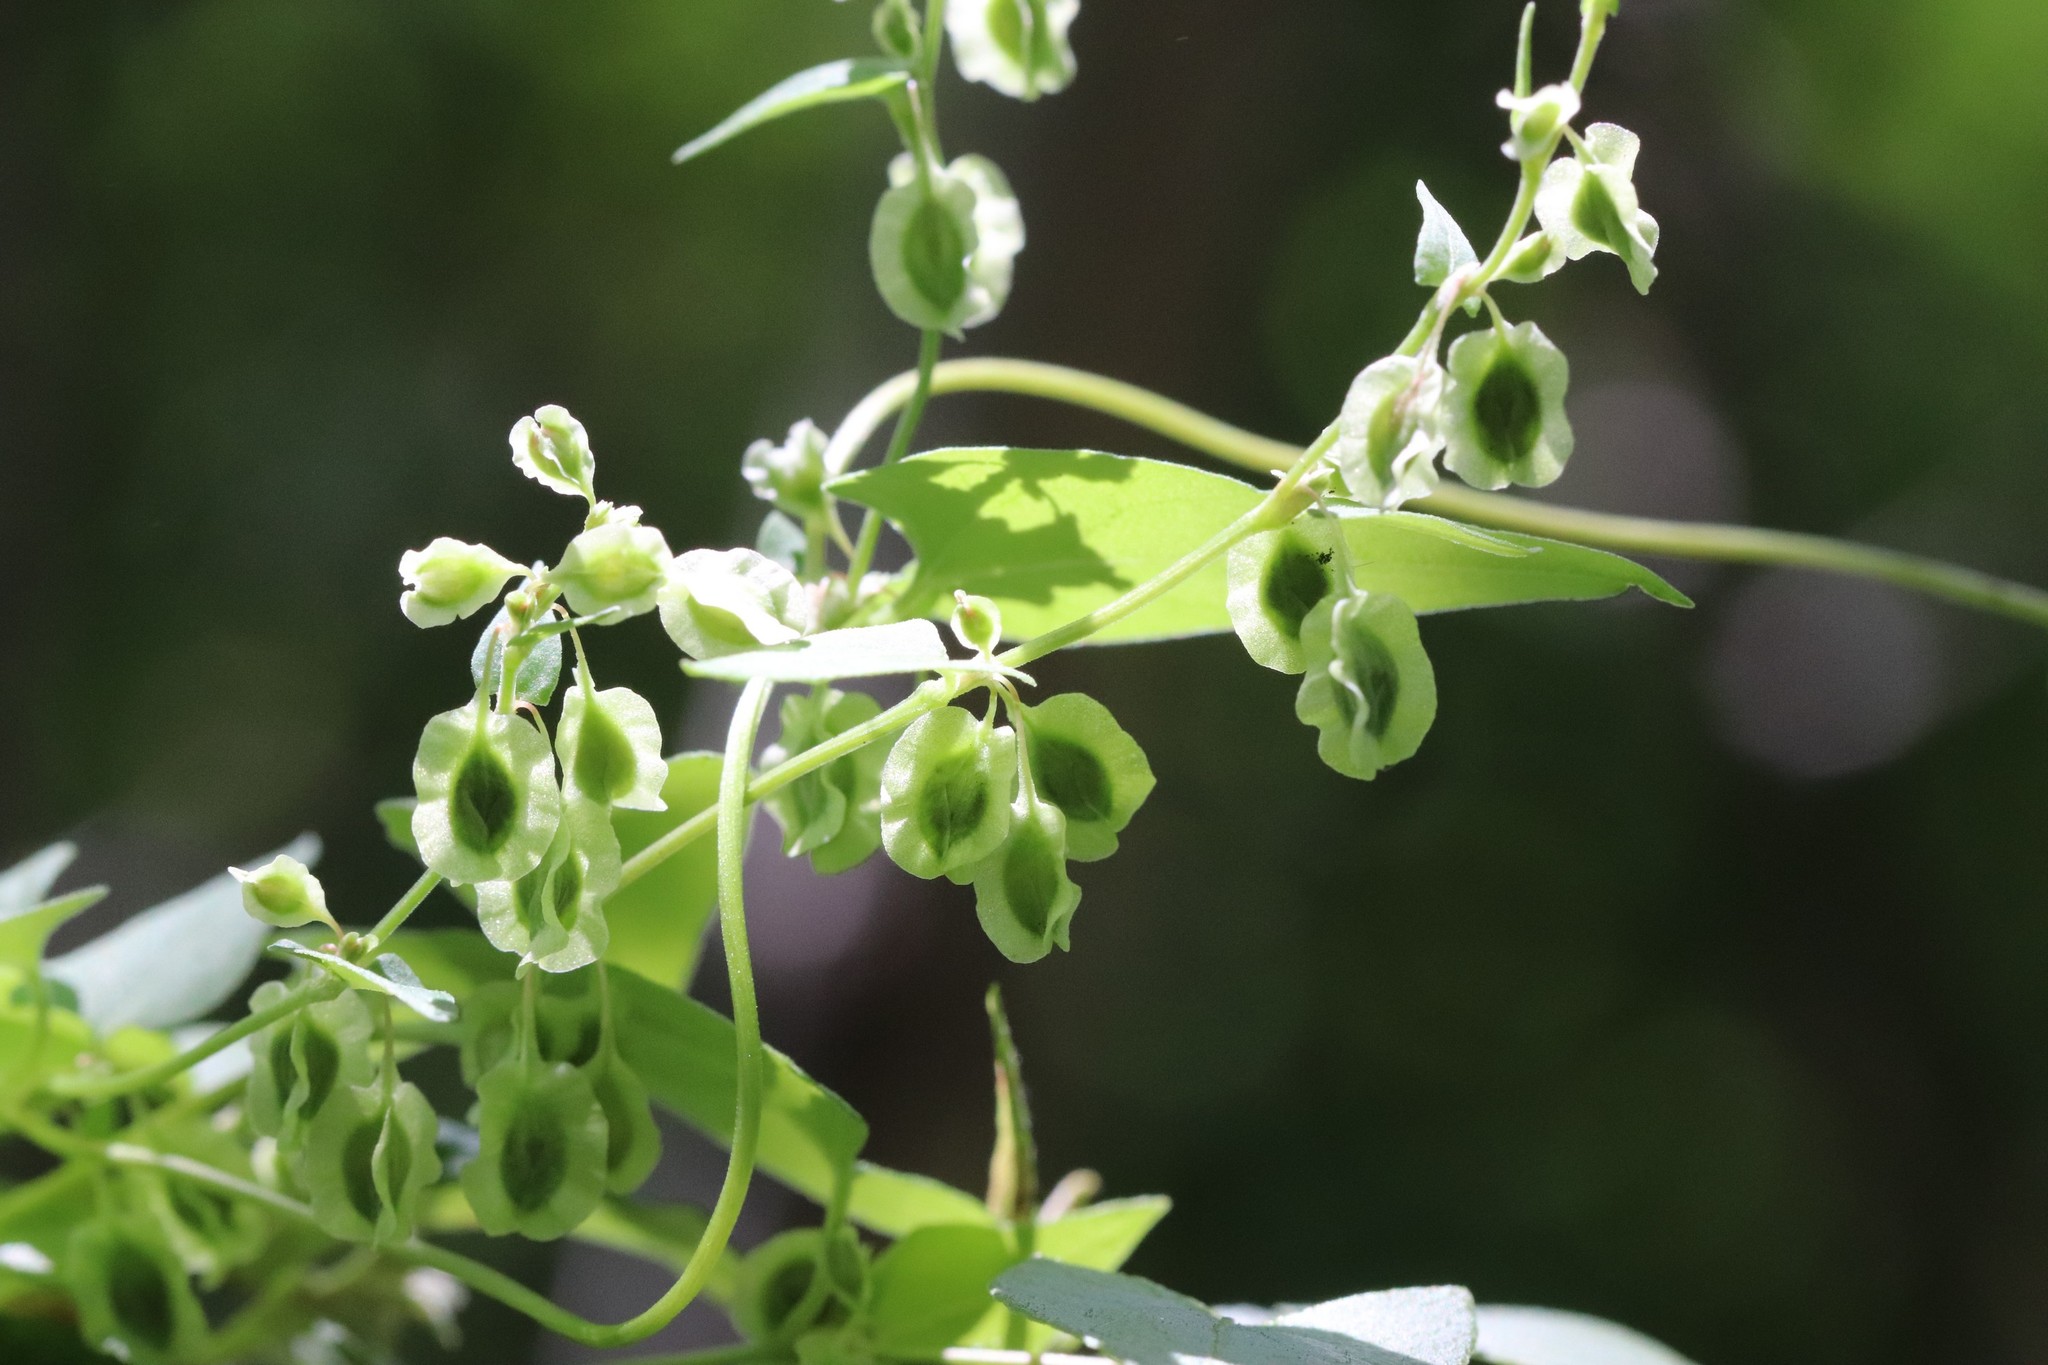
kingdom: Plantae
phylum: Tracheophyta
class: Magnoliopsida
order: Caryophyllales
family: Polygonaceae
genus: Fallopia
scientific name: Fallopia dumetorum
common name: Copse-bindweed
